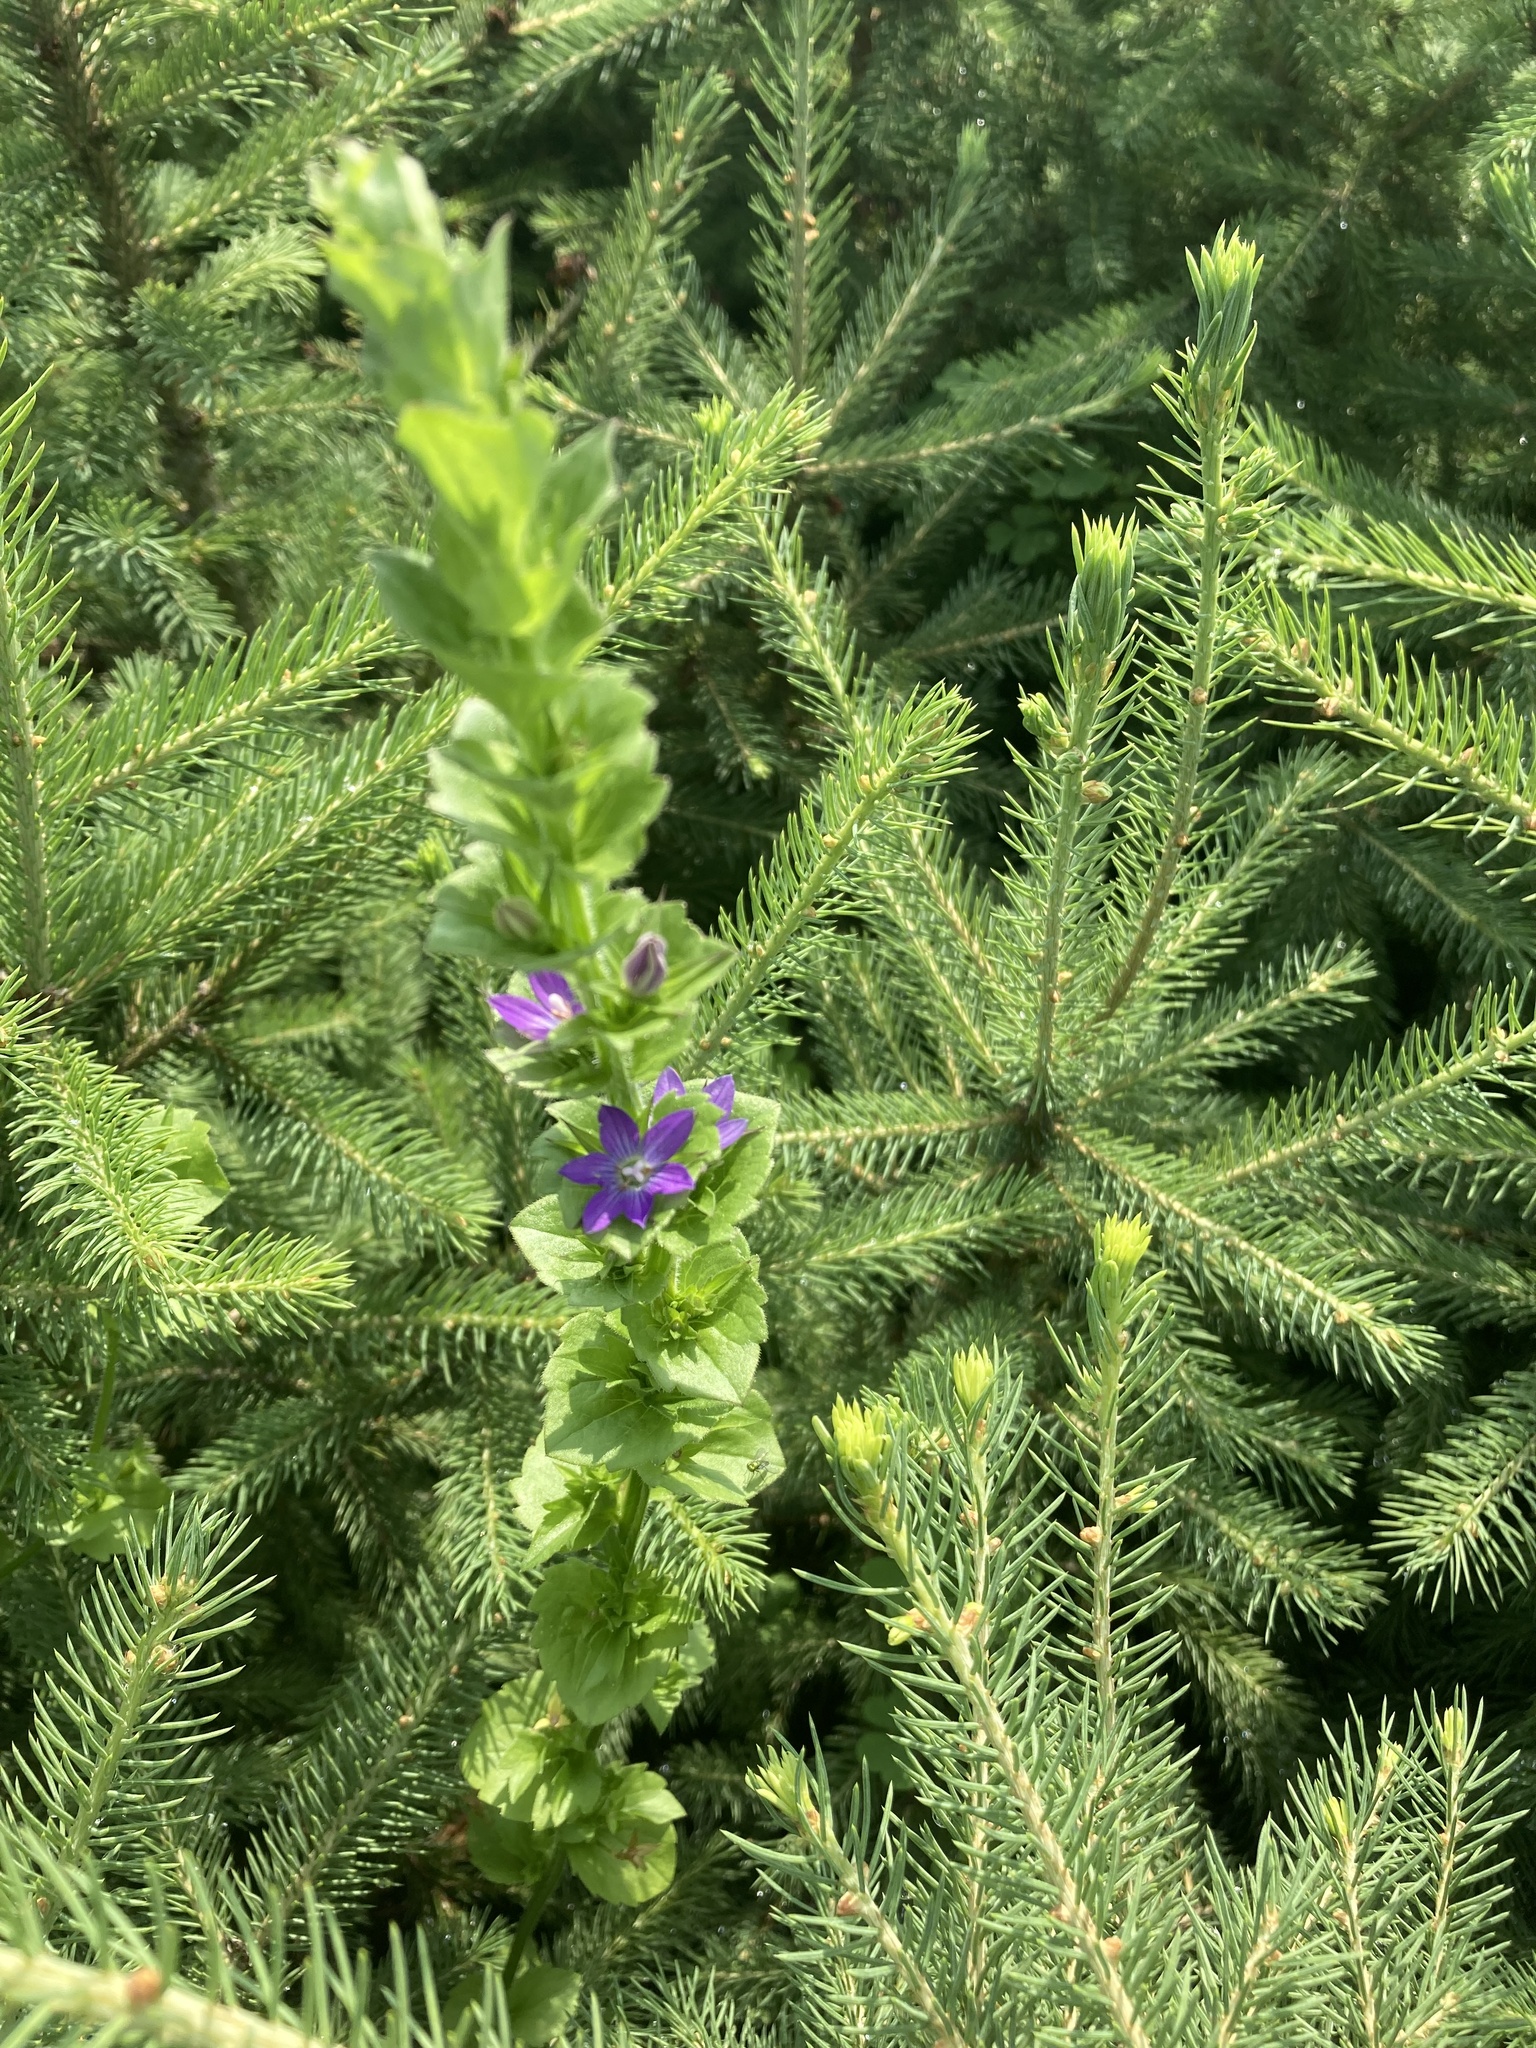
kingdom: Plantae
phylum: Tracheophyta
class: Magnoliopsida
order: Asterales
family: Campanulaceae
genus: Triodanis
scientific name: Triodanis perfoliata
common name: Clasping venus' looking-glass
